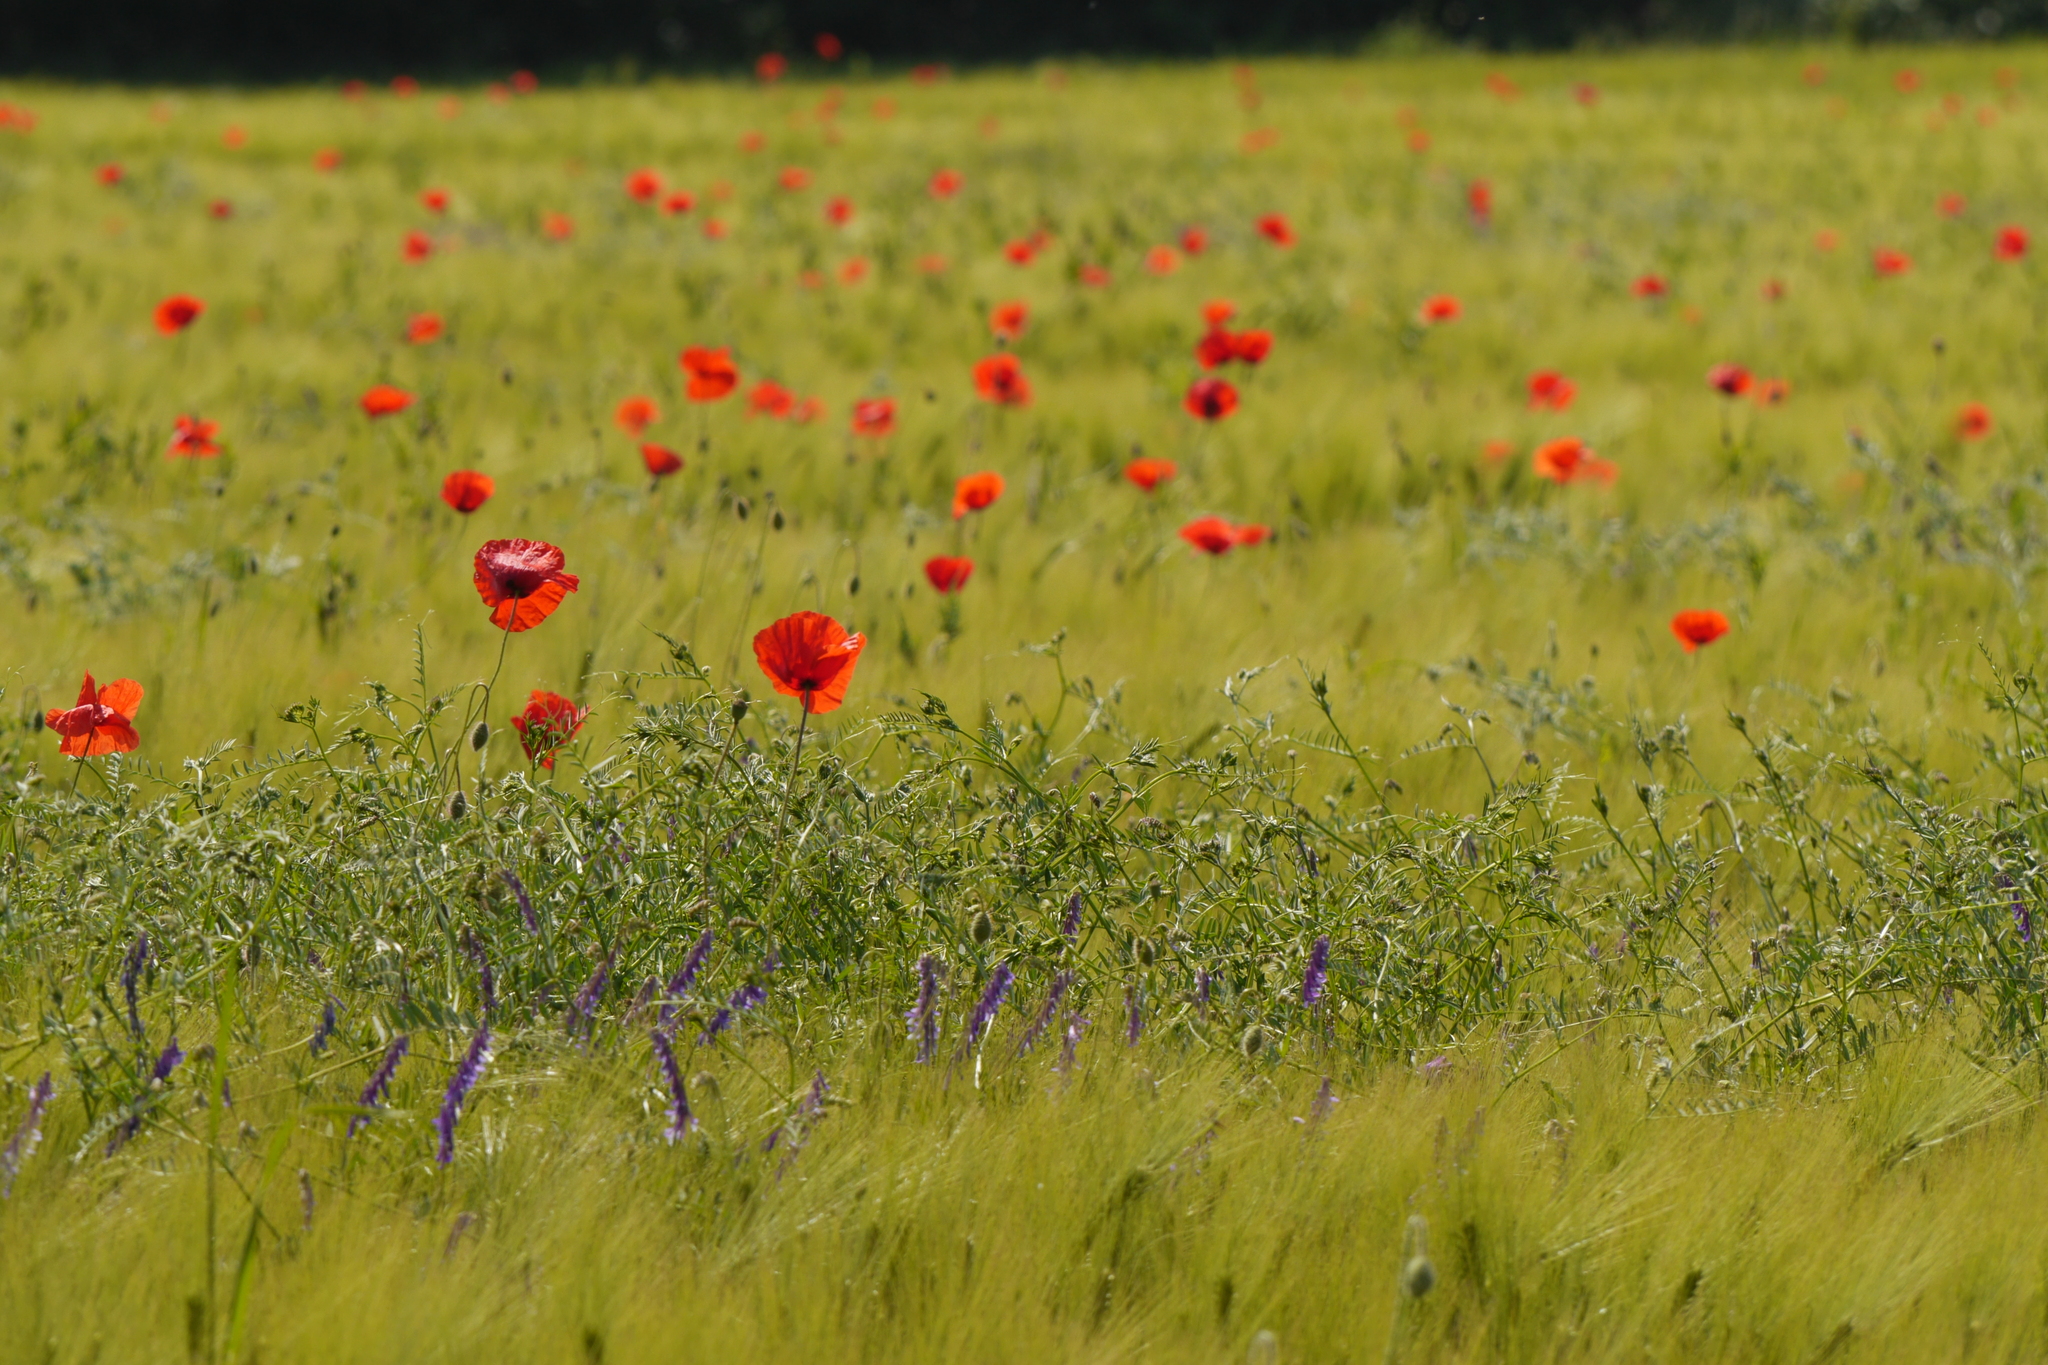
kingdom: Plantae
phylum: Tracheophyta
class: Magnoliopsida
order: Ranunculales
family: Papaveraceae
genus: Papaver
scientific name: Papaver rhoeas
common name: Corn poppy
